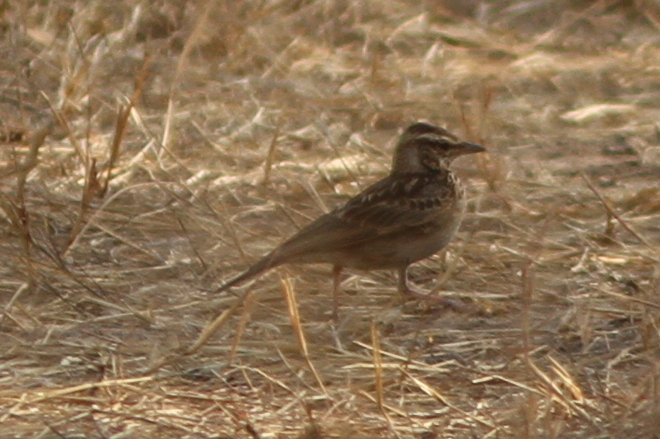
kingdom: Animalia
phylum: Chordata
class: Aves
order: Passeriformes
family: Alaudidae
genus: Galerida
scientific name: Galerida modesta
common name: Sun lark
